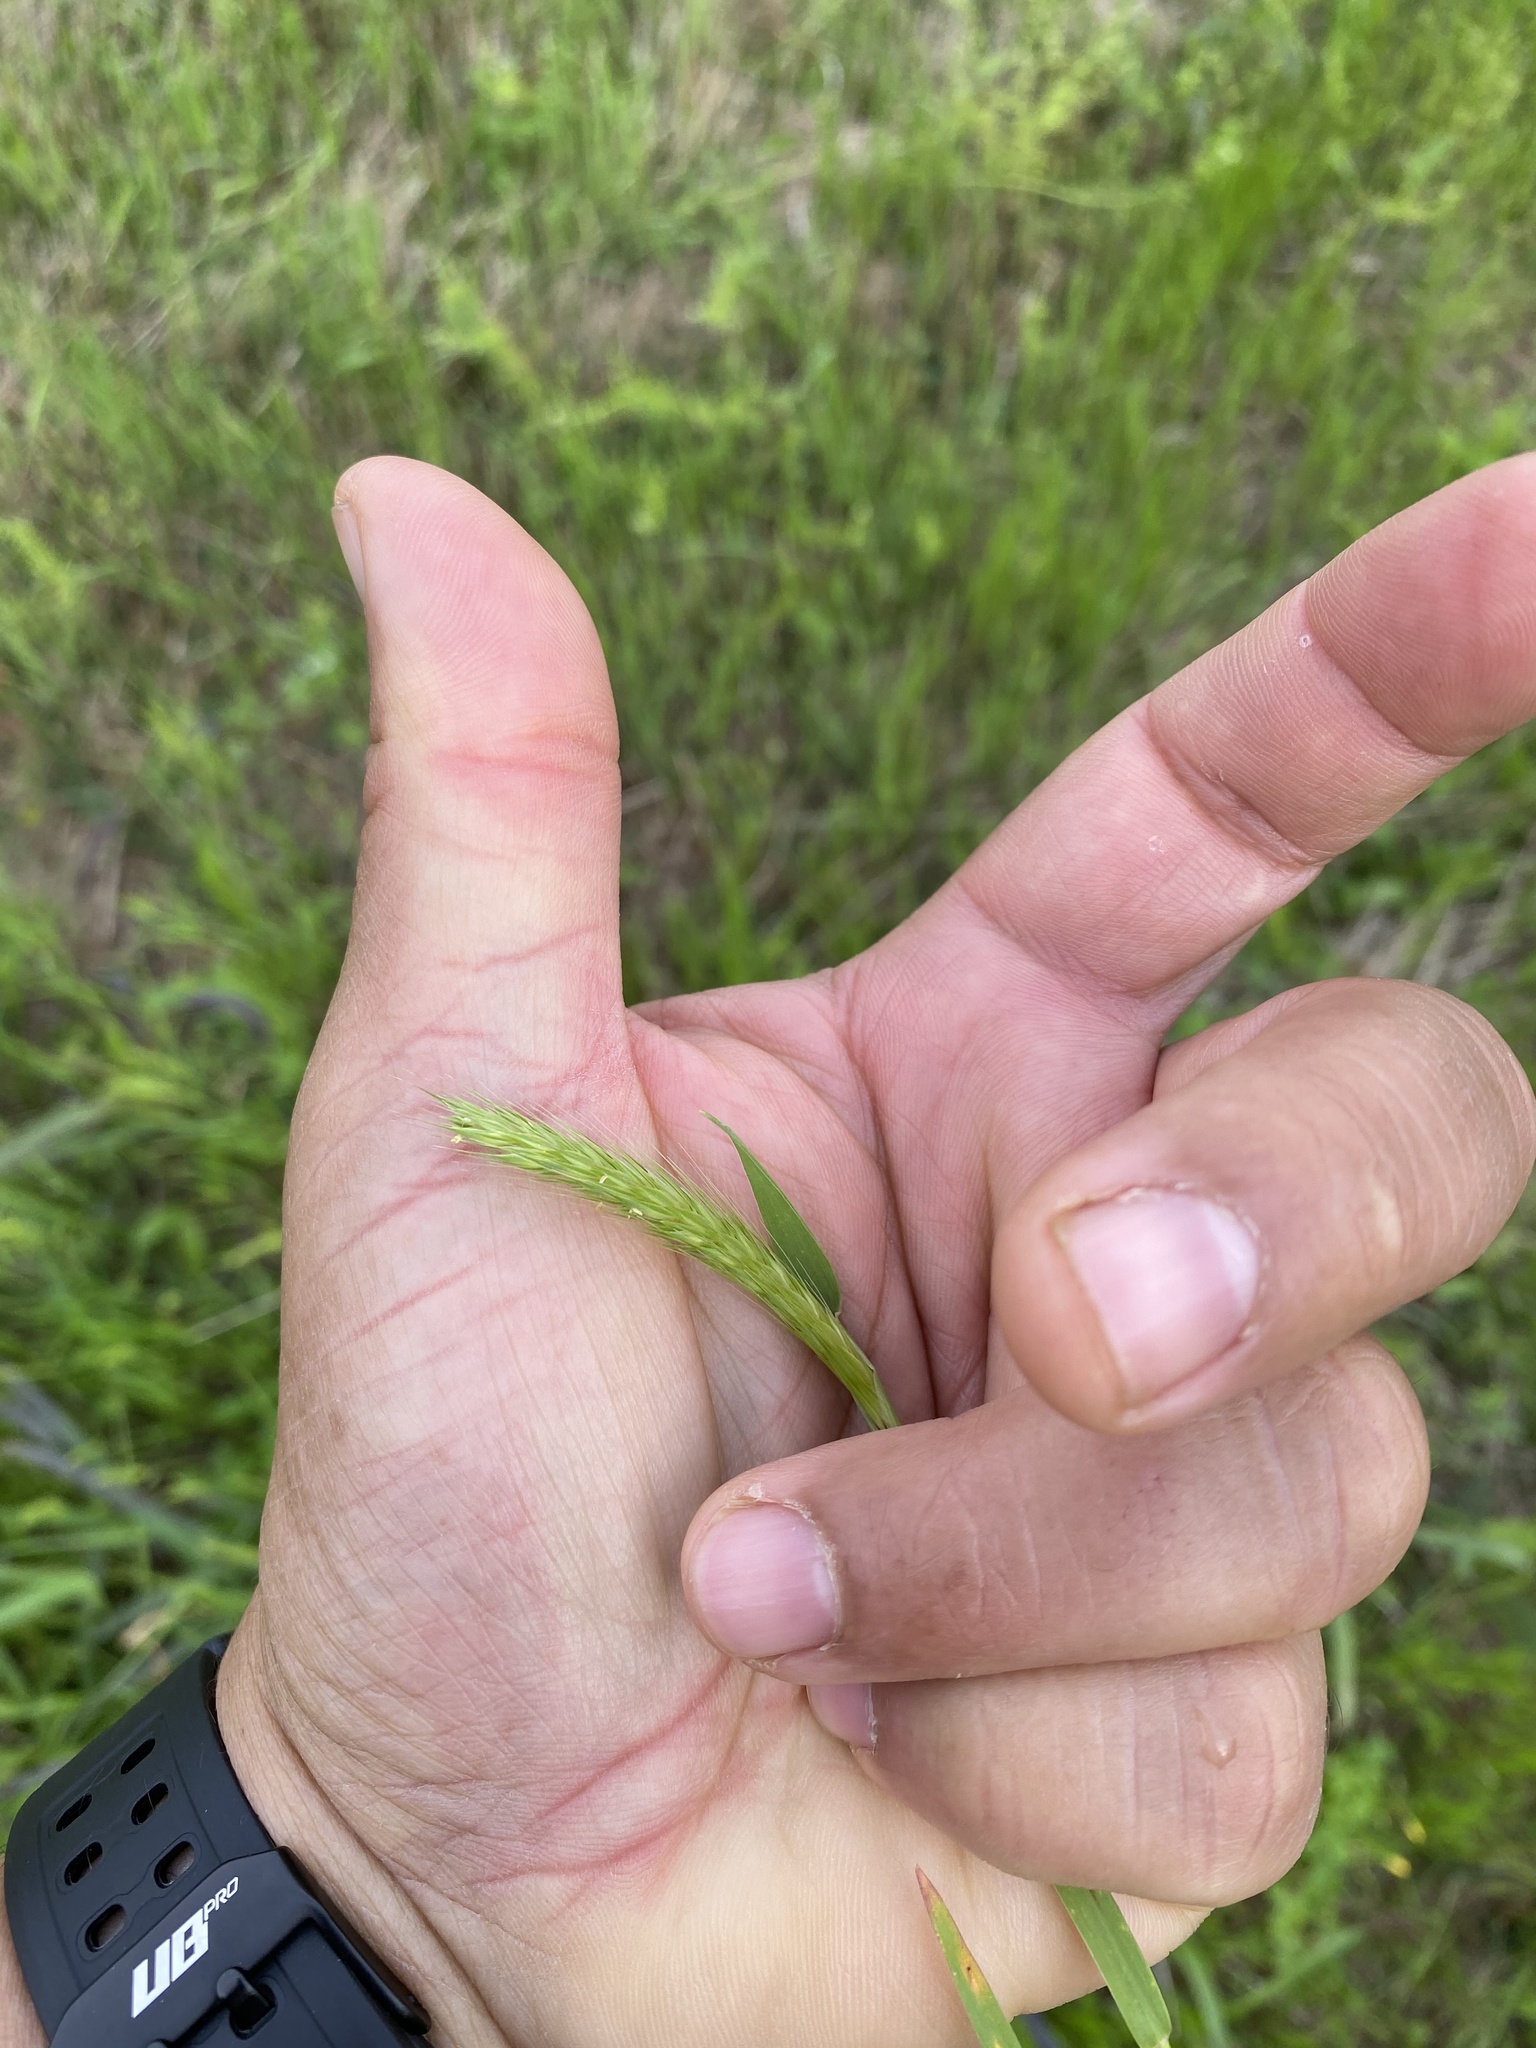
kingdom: Plantae
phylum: Tracheophyta
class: Liliopsida
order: Poales
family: Poaceae
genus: Hordeum
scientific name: Hordeum pusillum
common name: Little barley
